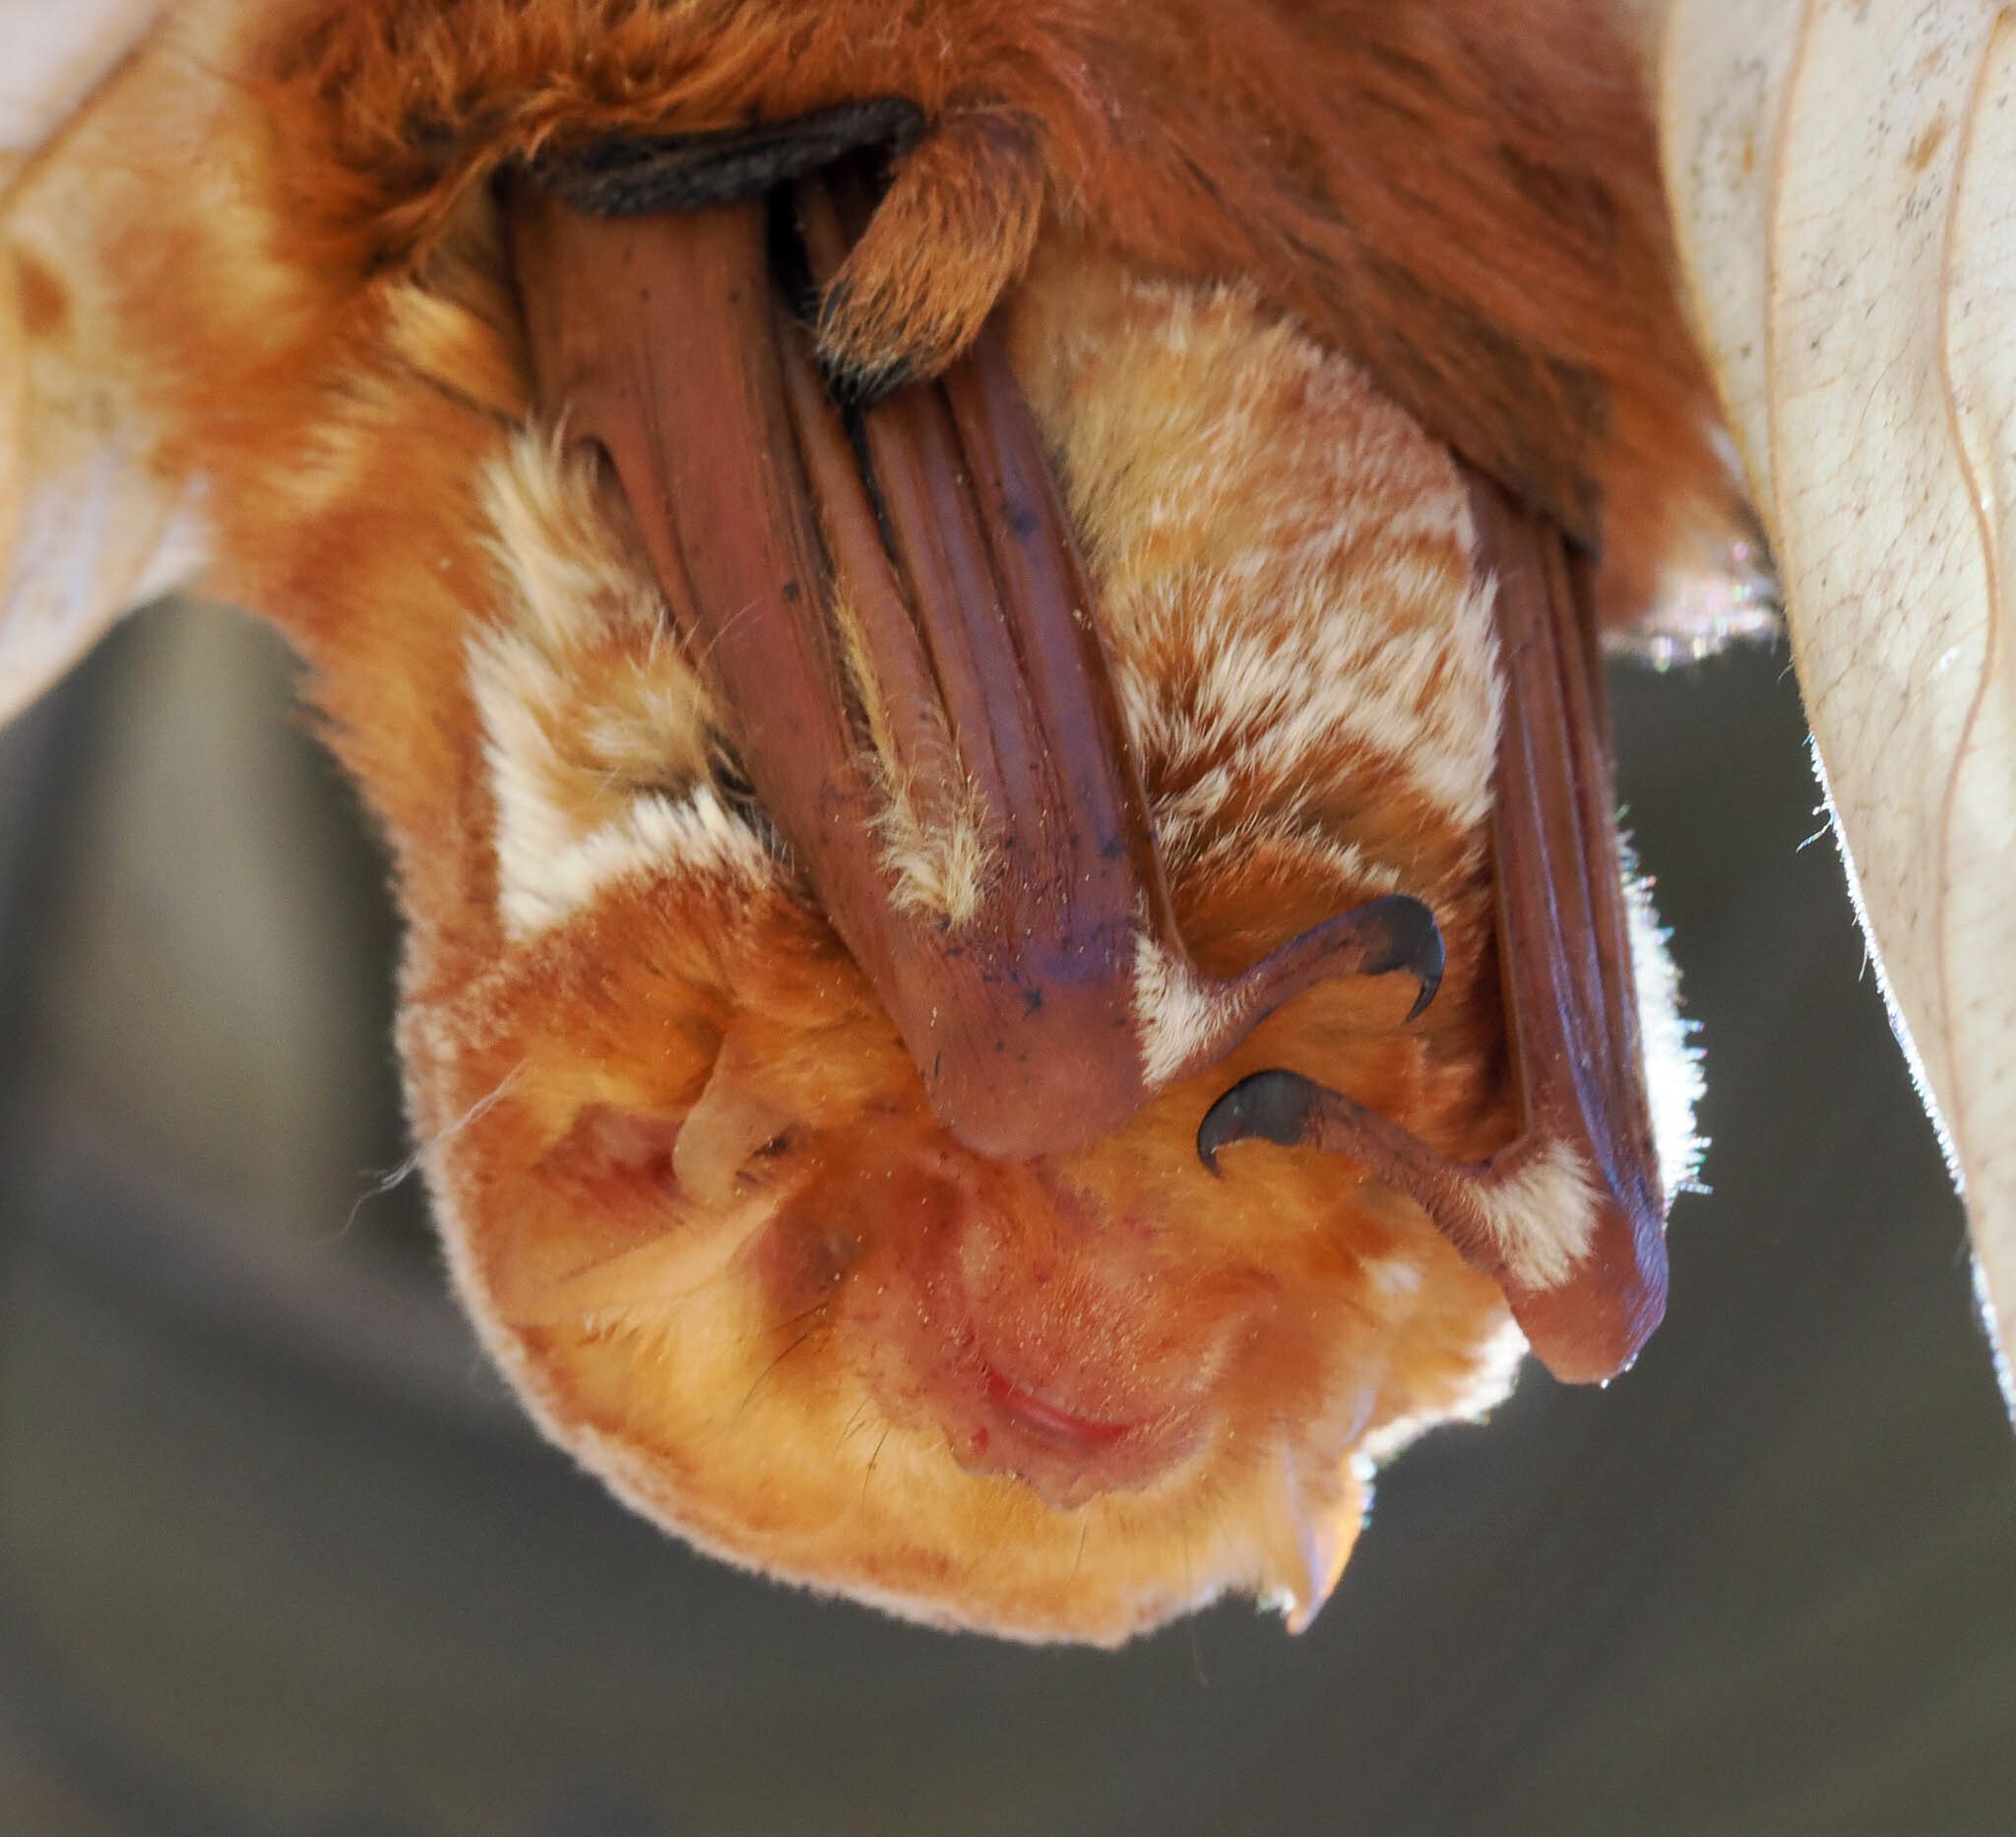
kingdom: Animalia
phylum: Chordata
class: Mammalia
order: Chiroptera
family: Vespertilionidae
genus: Lasiurus
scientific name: Lasiurus borealis
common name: Eastern red bat
